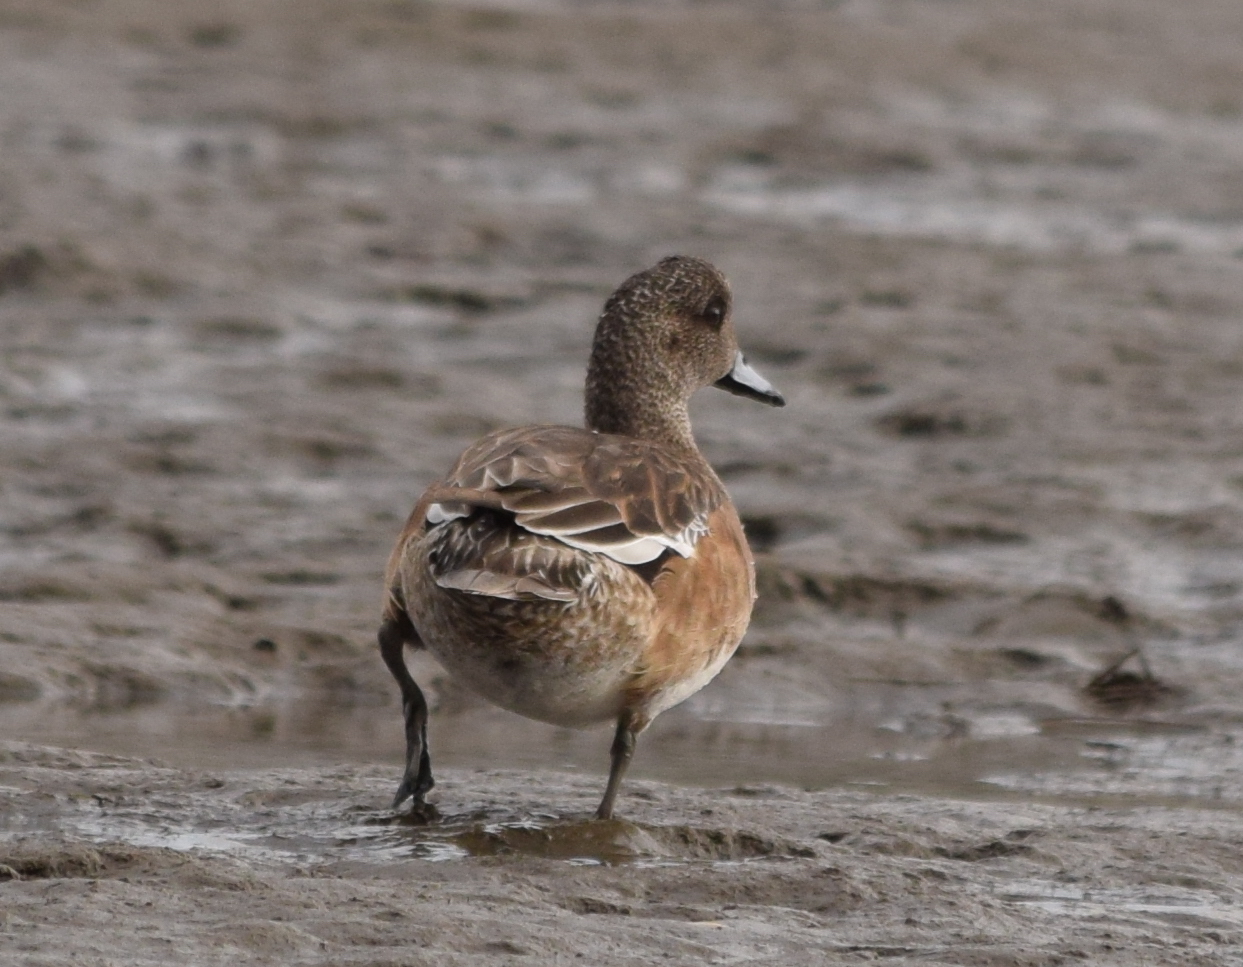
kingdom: Animalia
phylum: Chordata
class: Aves
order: Anseriformes
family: Anatidae
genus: Mareca
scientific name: Mareca americana
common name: American wigeon
